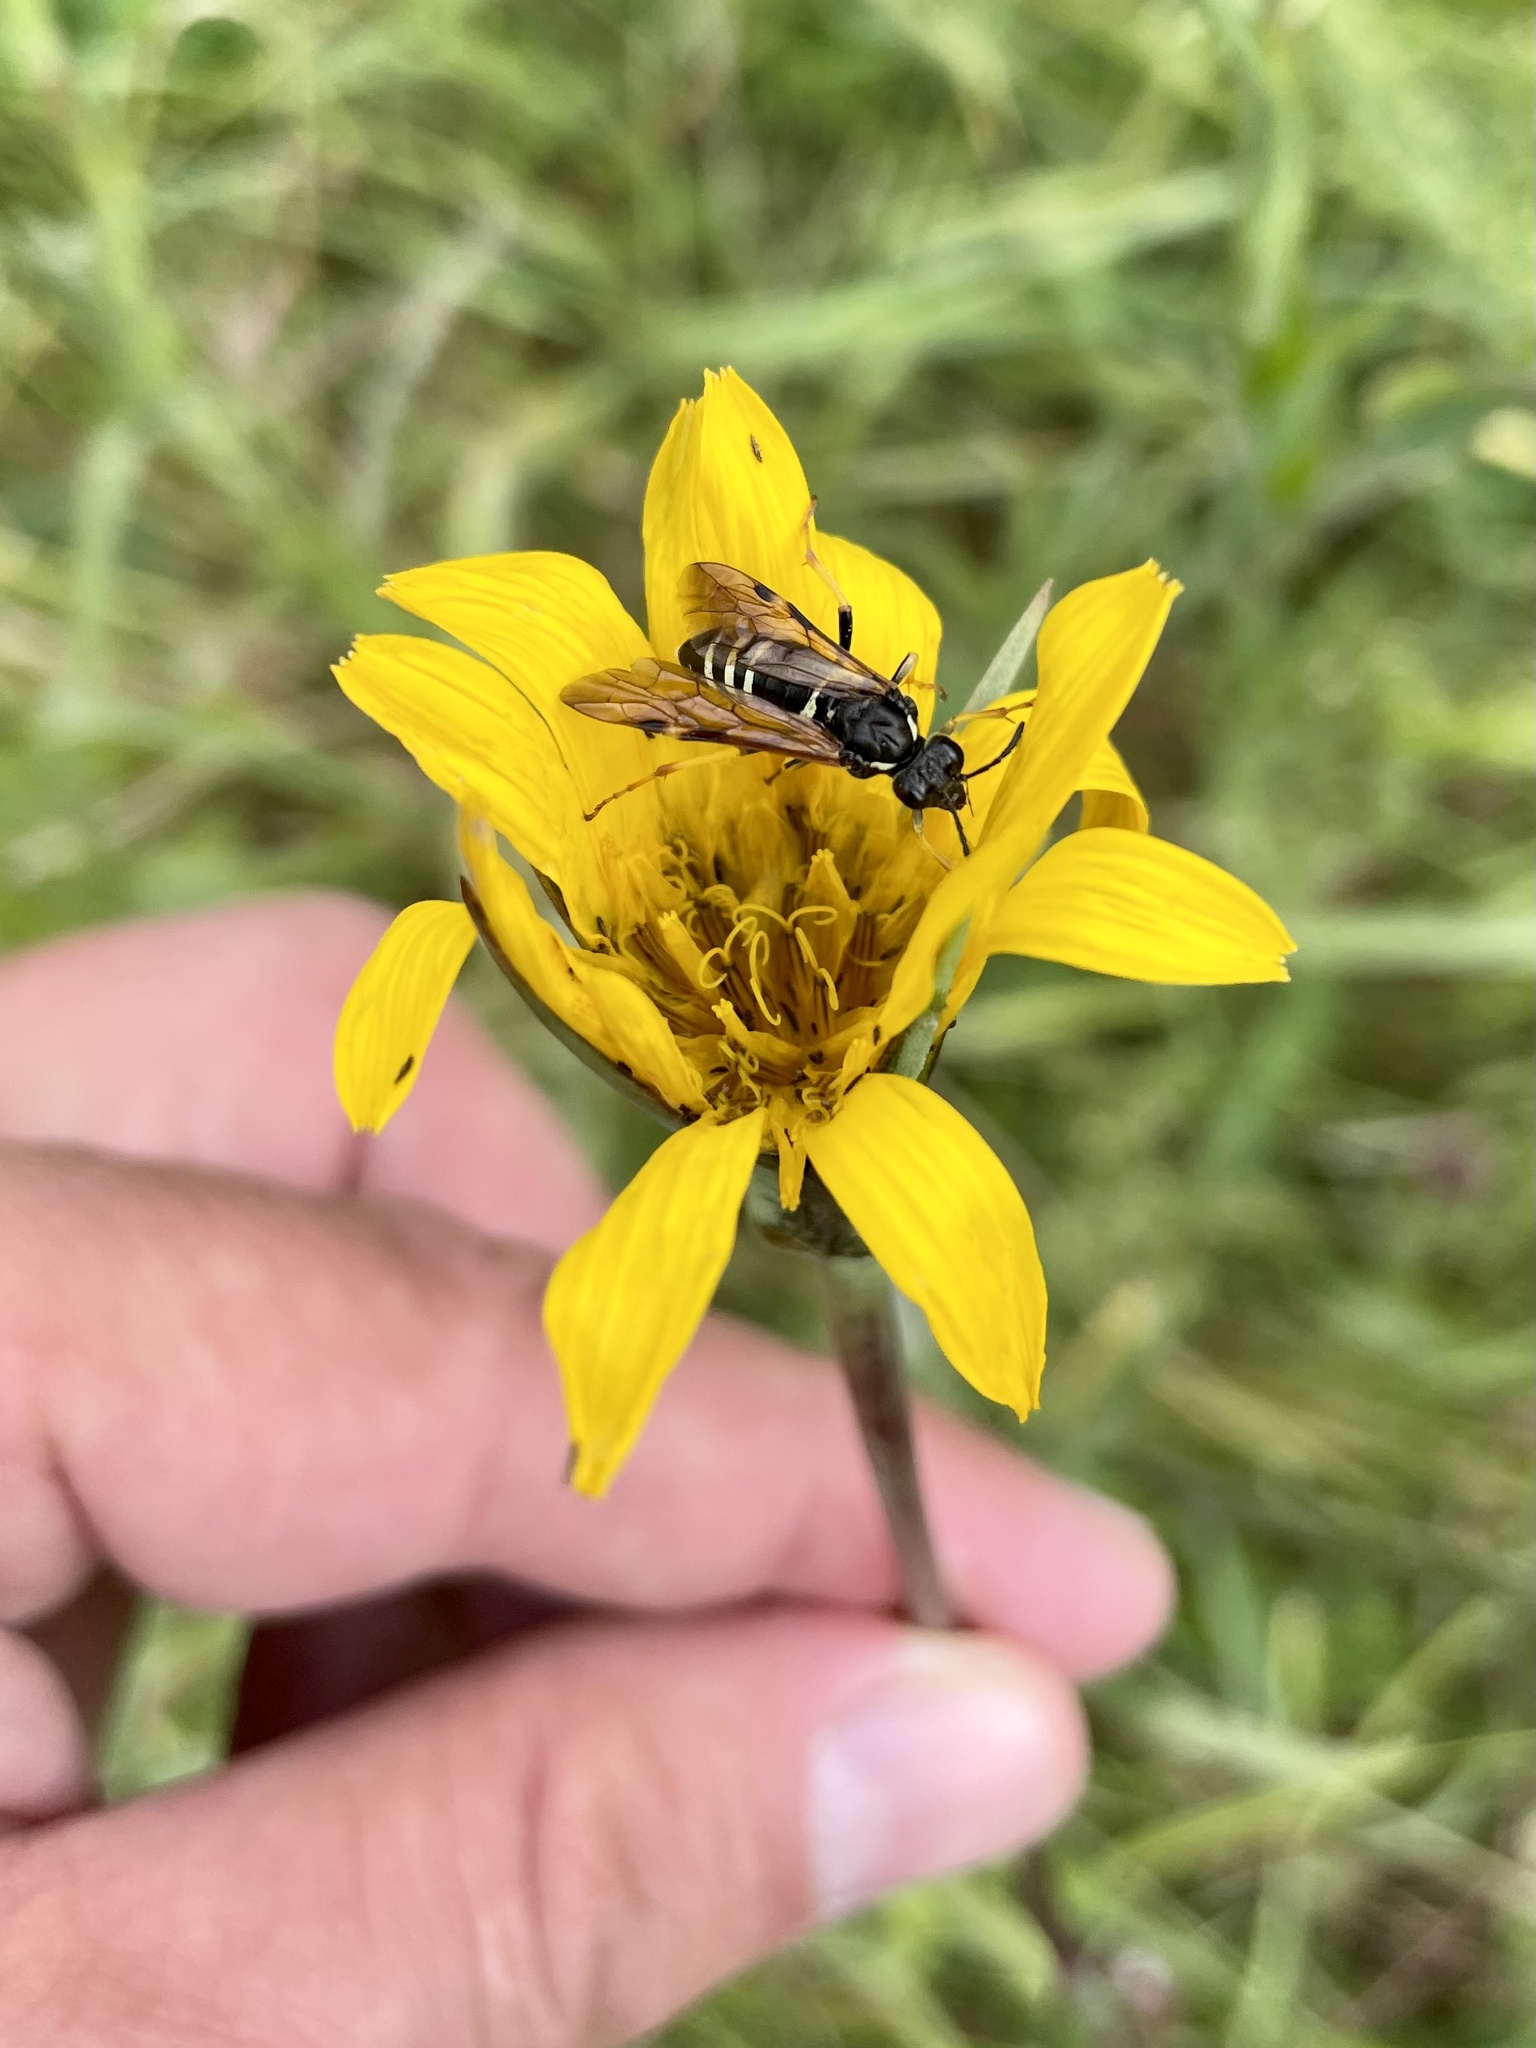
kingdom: Animalia
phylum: Arthropoda
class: Insecta
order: Hymenoptera
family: Tenthredinidae
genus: Tenthredo
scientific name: Tenthredo koehleri
